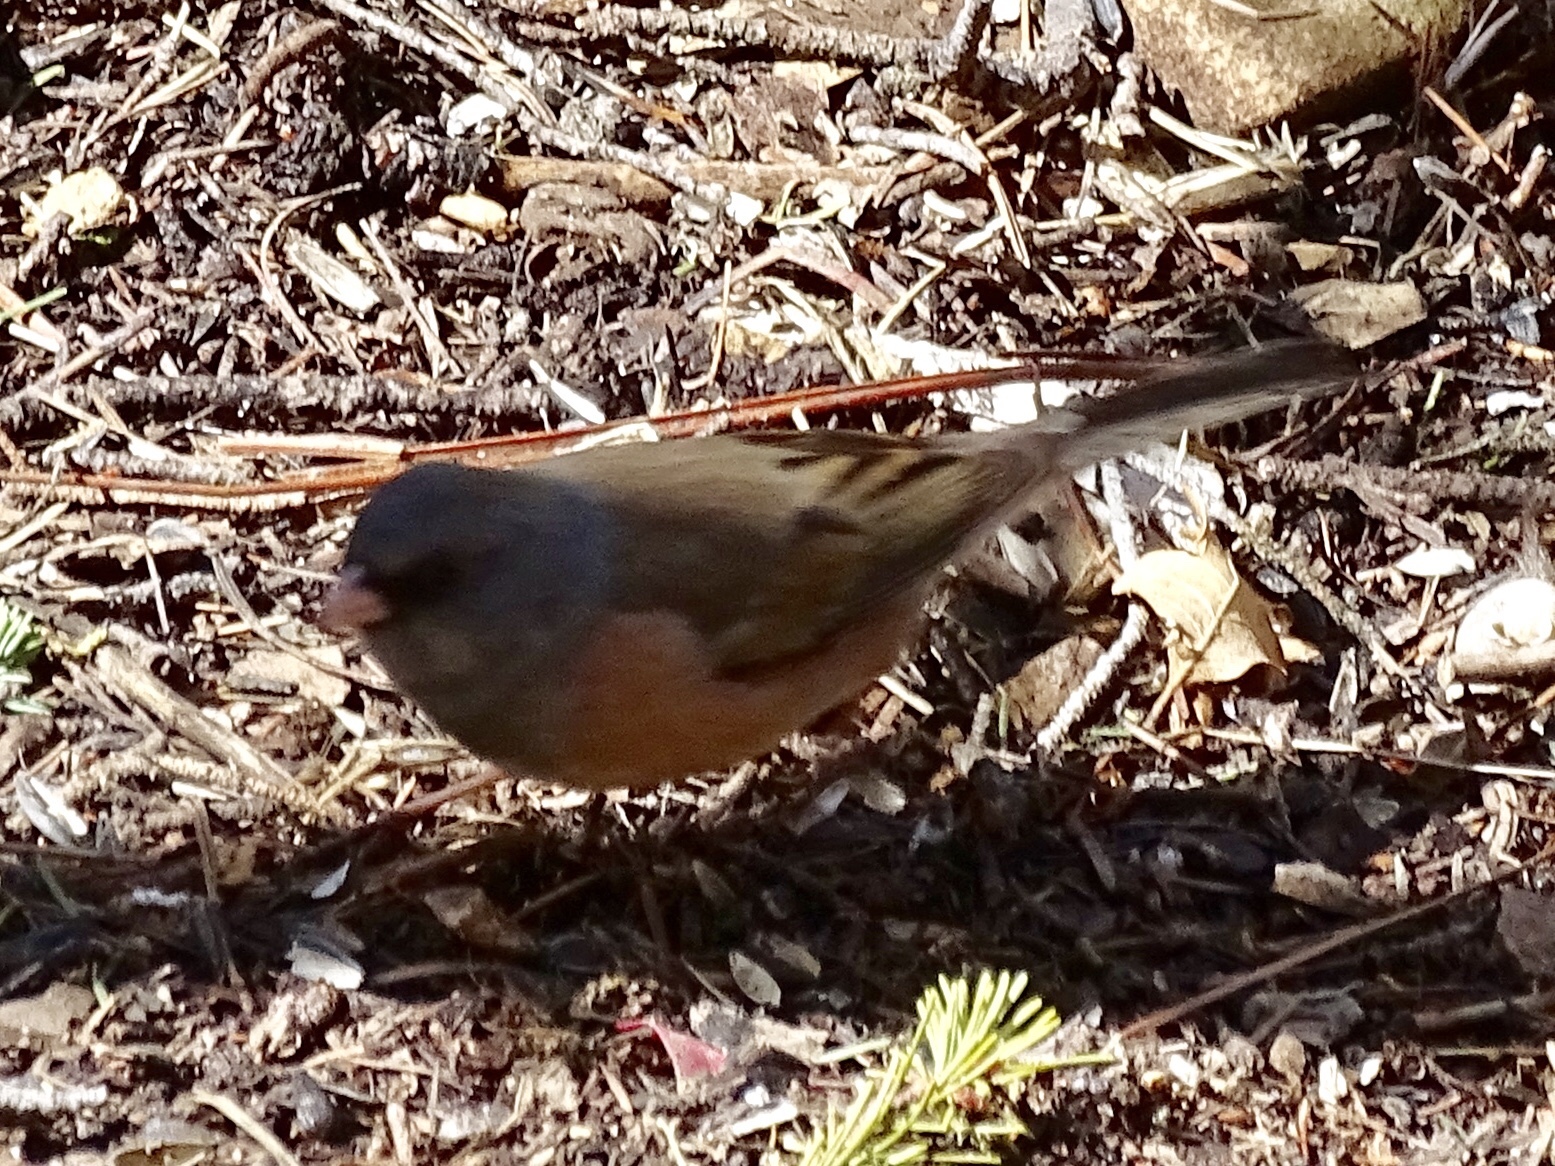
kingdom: Animalia
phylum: Chordata
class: Aves
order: Passeriformes
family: Passerellidae
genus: Junco
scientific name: Junco hyemalis
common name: Dark-eyed junco
